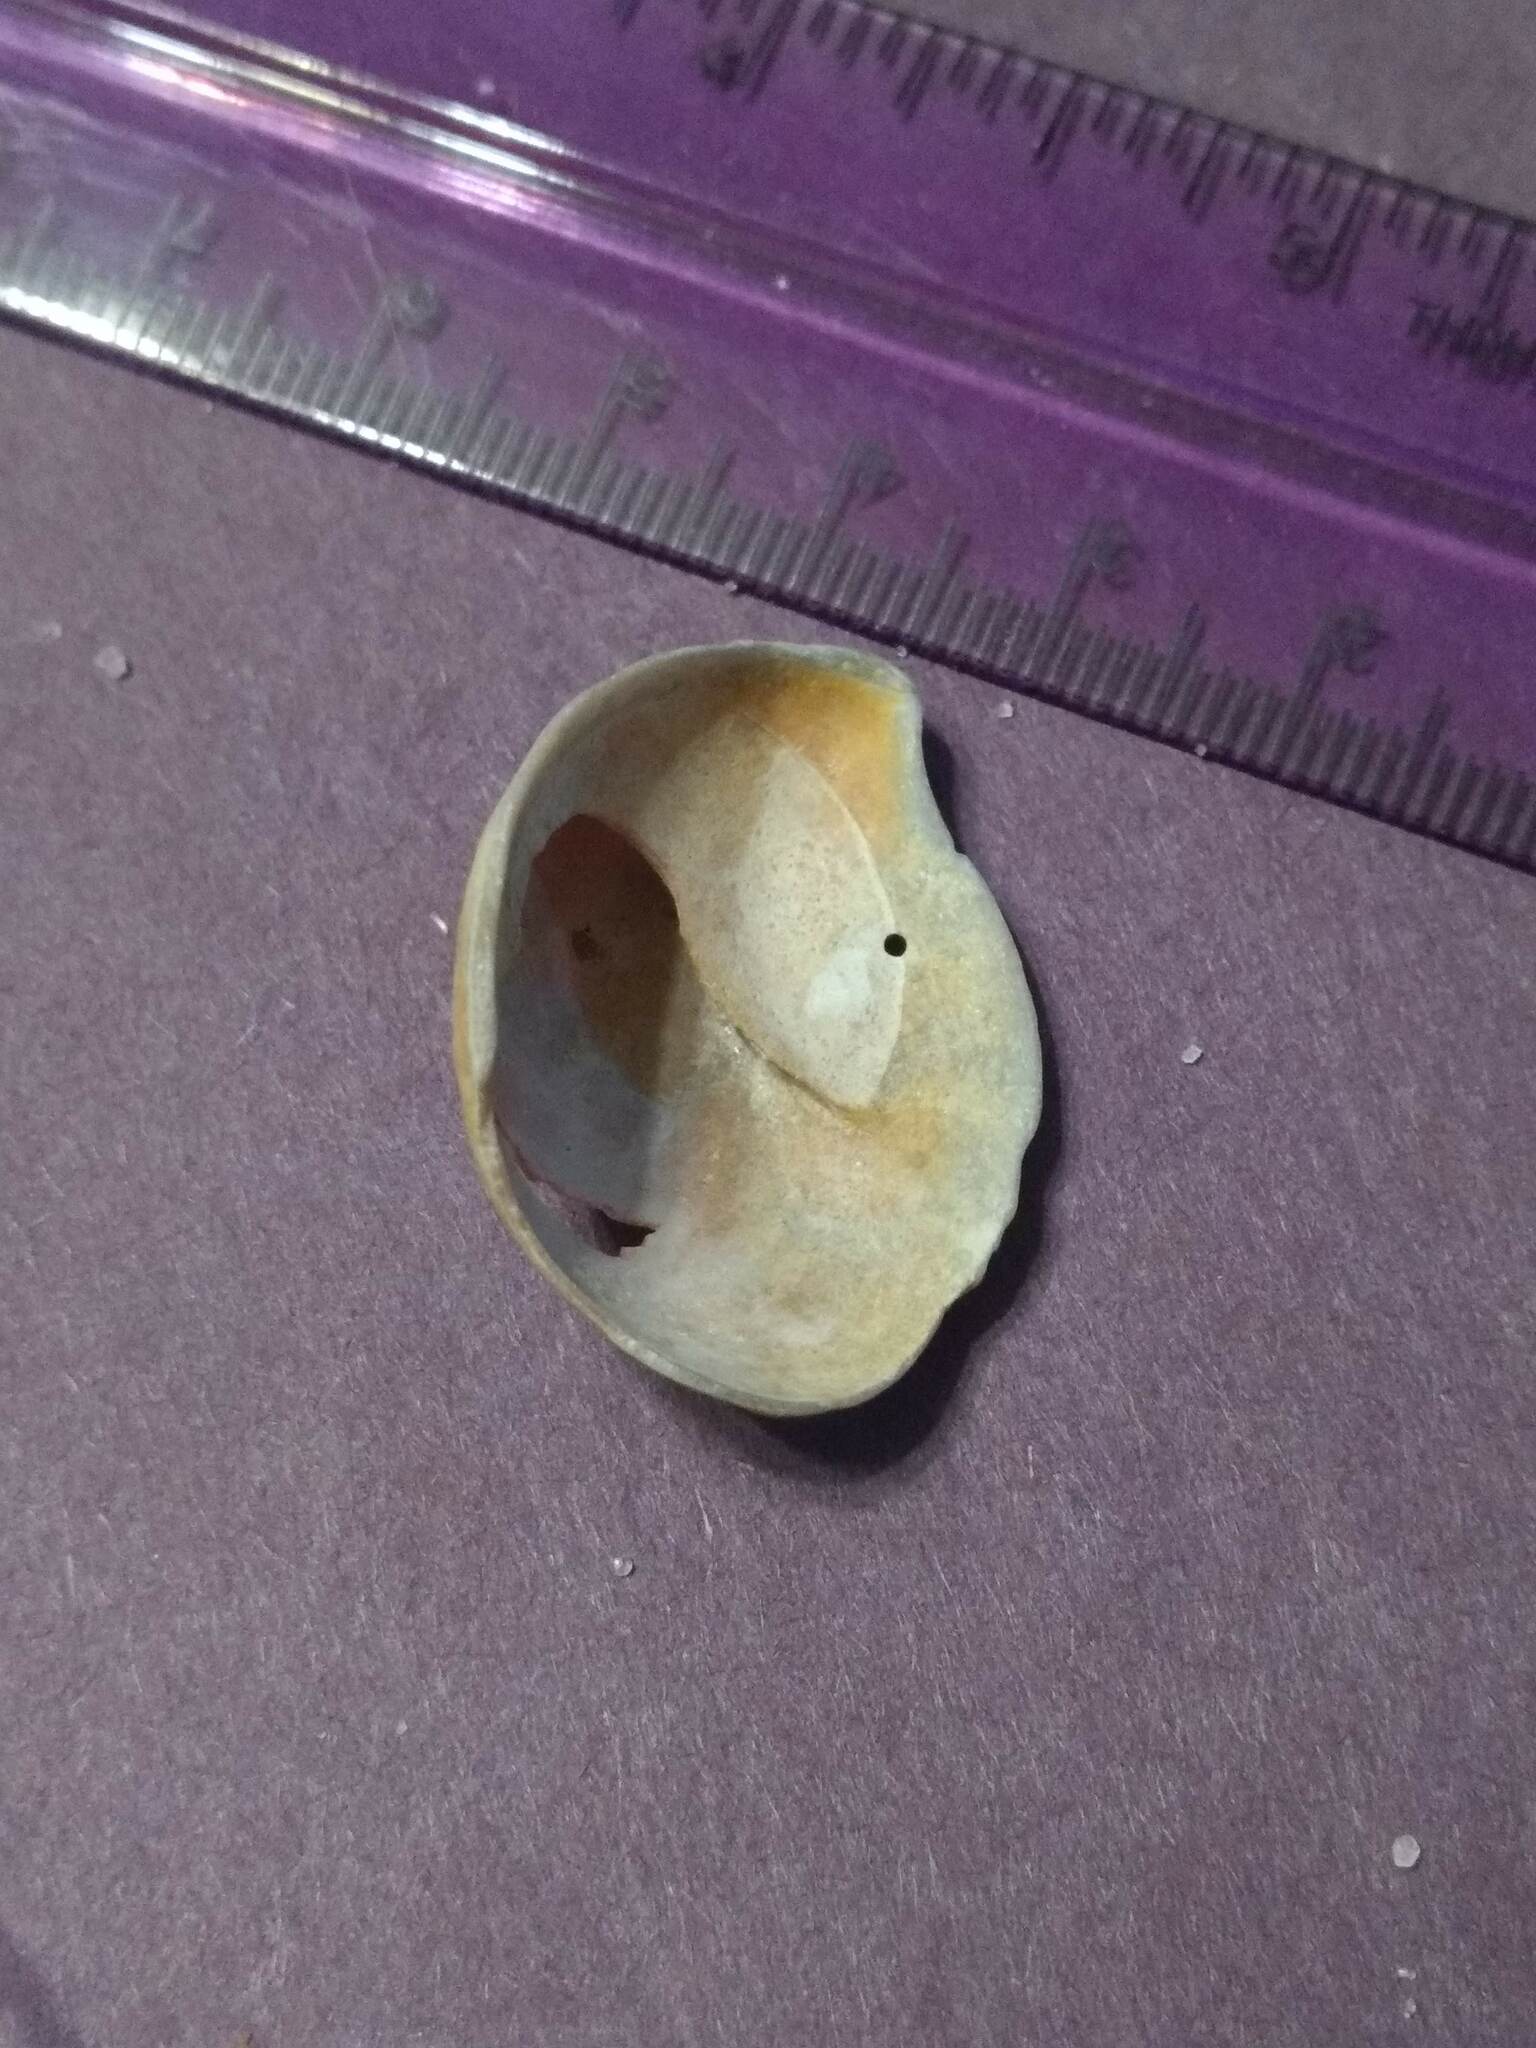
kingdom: Animalia
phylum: Mollusca
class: Gastropoda
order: Littorinimorpha
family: Calyptraeidae
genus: Crepidula
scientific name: Crepidula fornicata
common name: Slipper limpet
